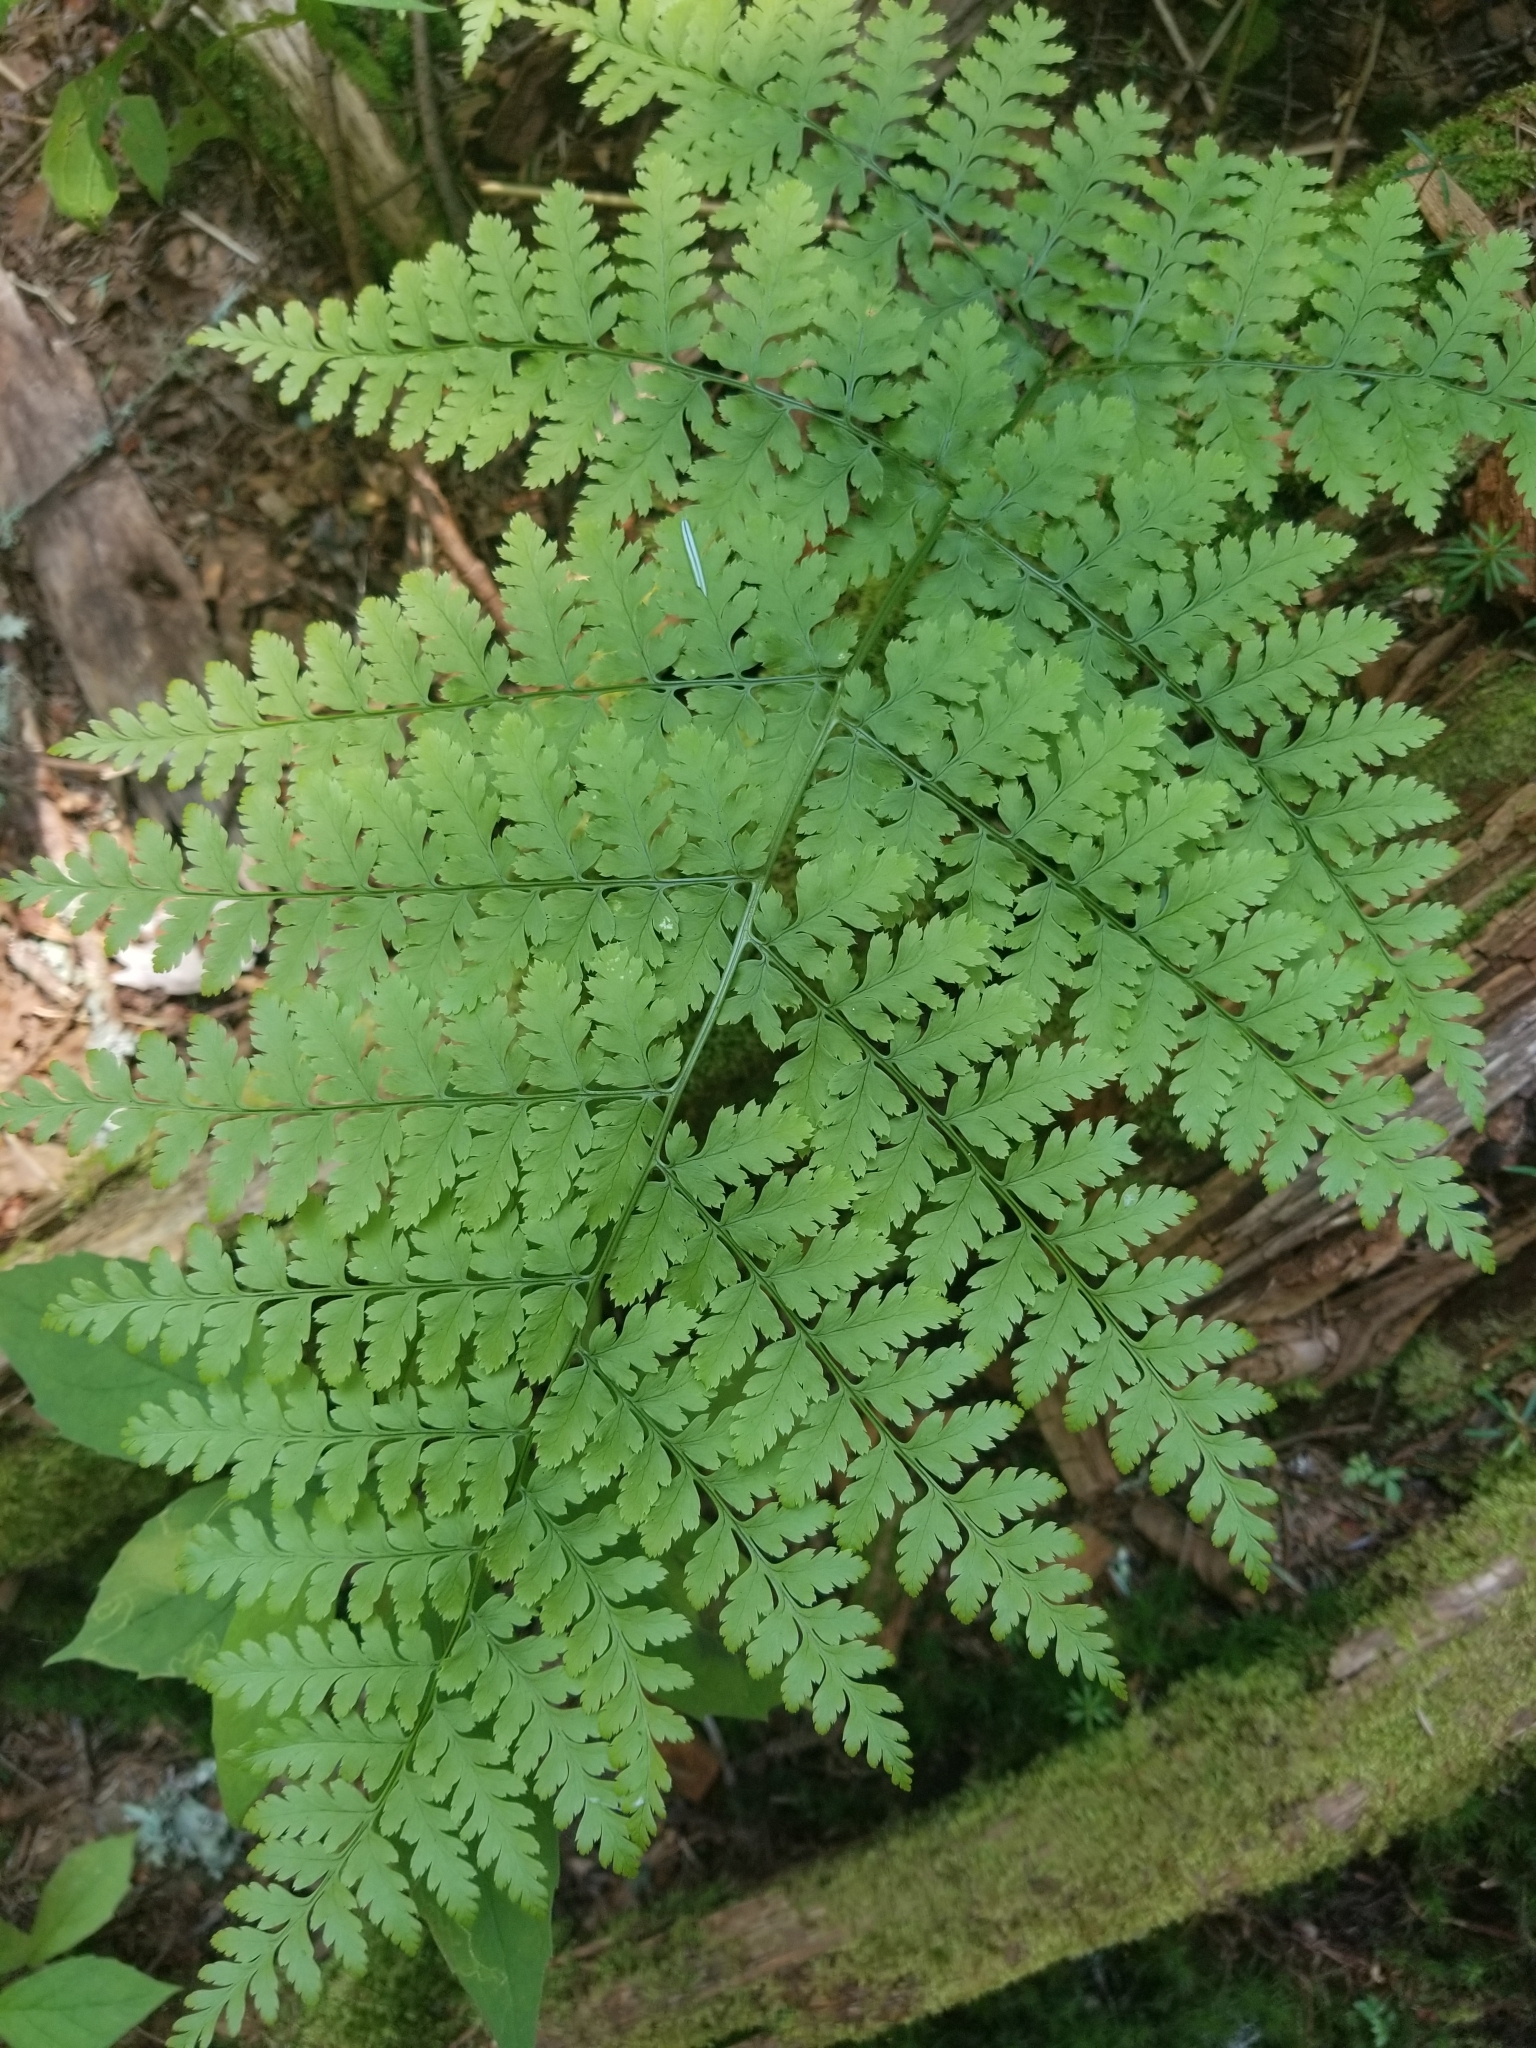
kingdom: Plantae
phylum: Tracheophyta
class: Polypodiopsida
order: Polypodiales
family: Dryopteridaceae
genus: Dryopteris
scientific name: Dryopteris intermedia
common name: Evergreen wood fern
